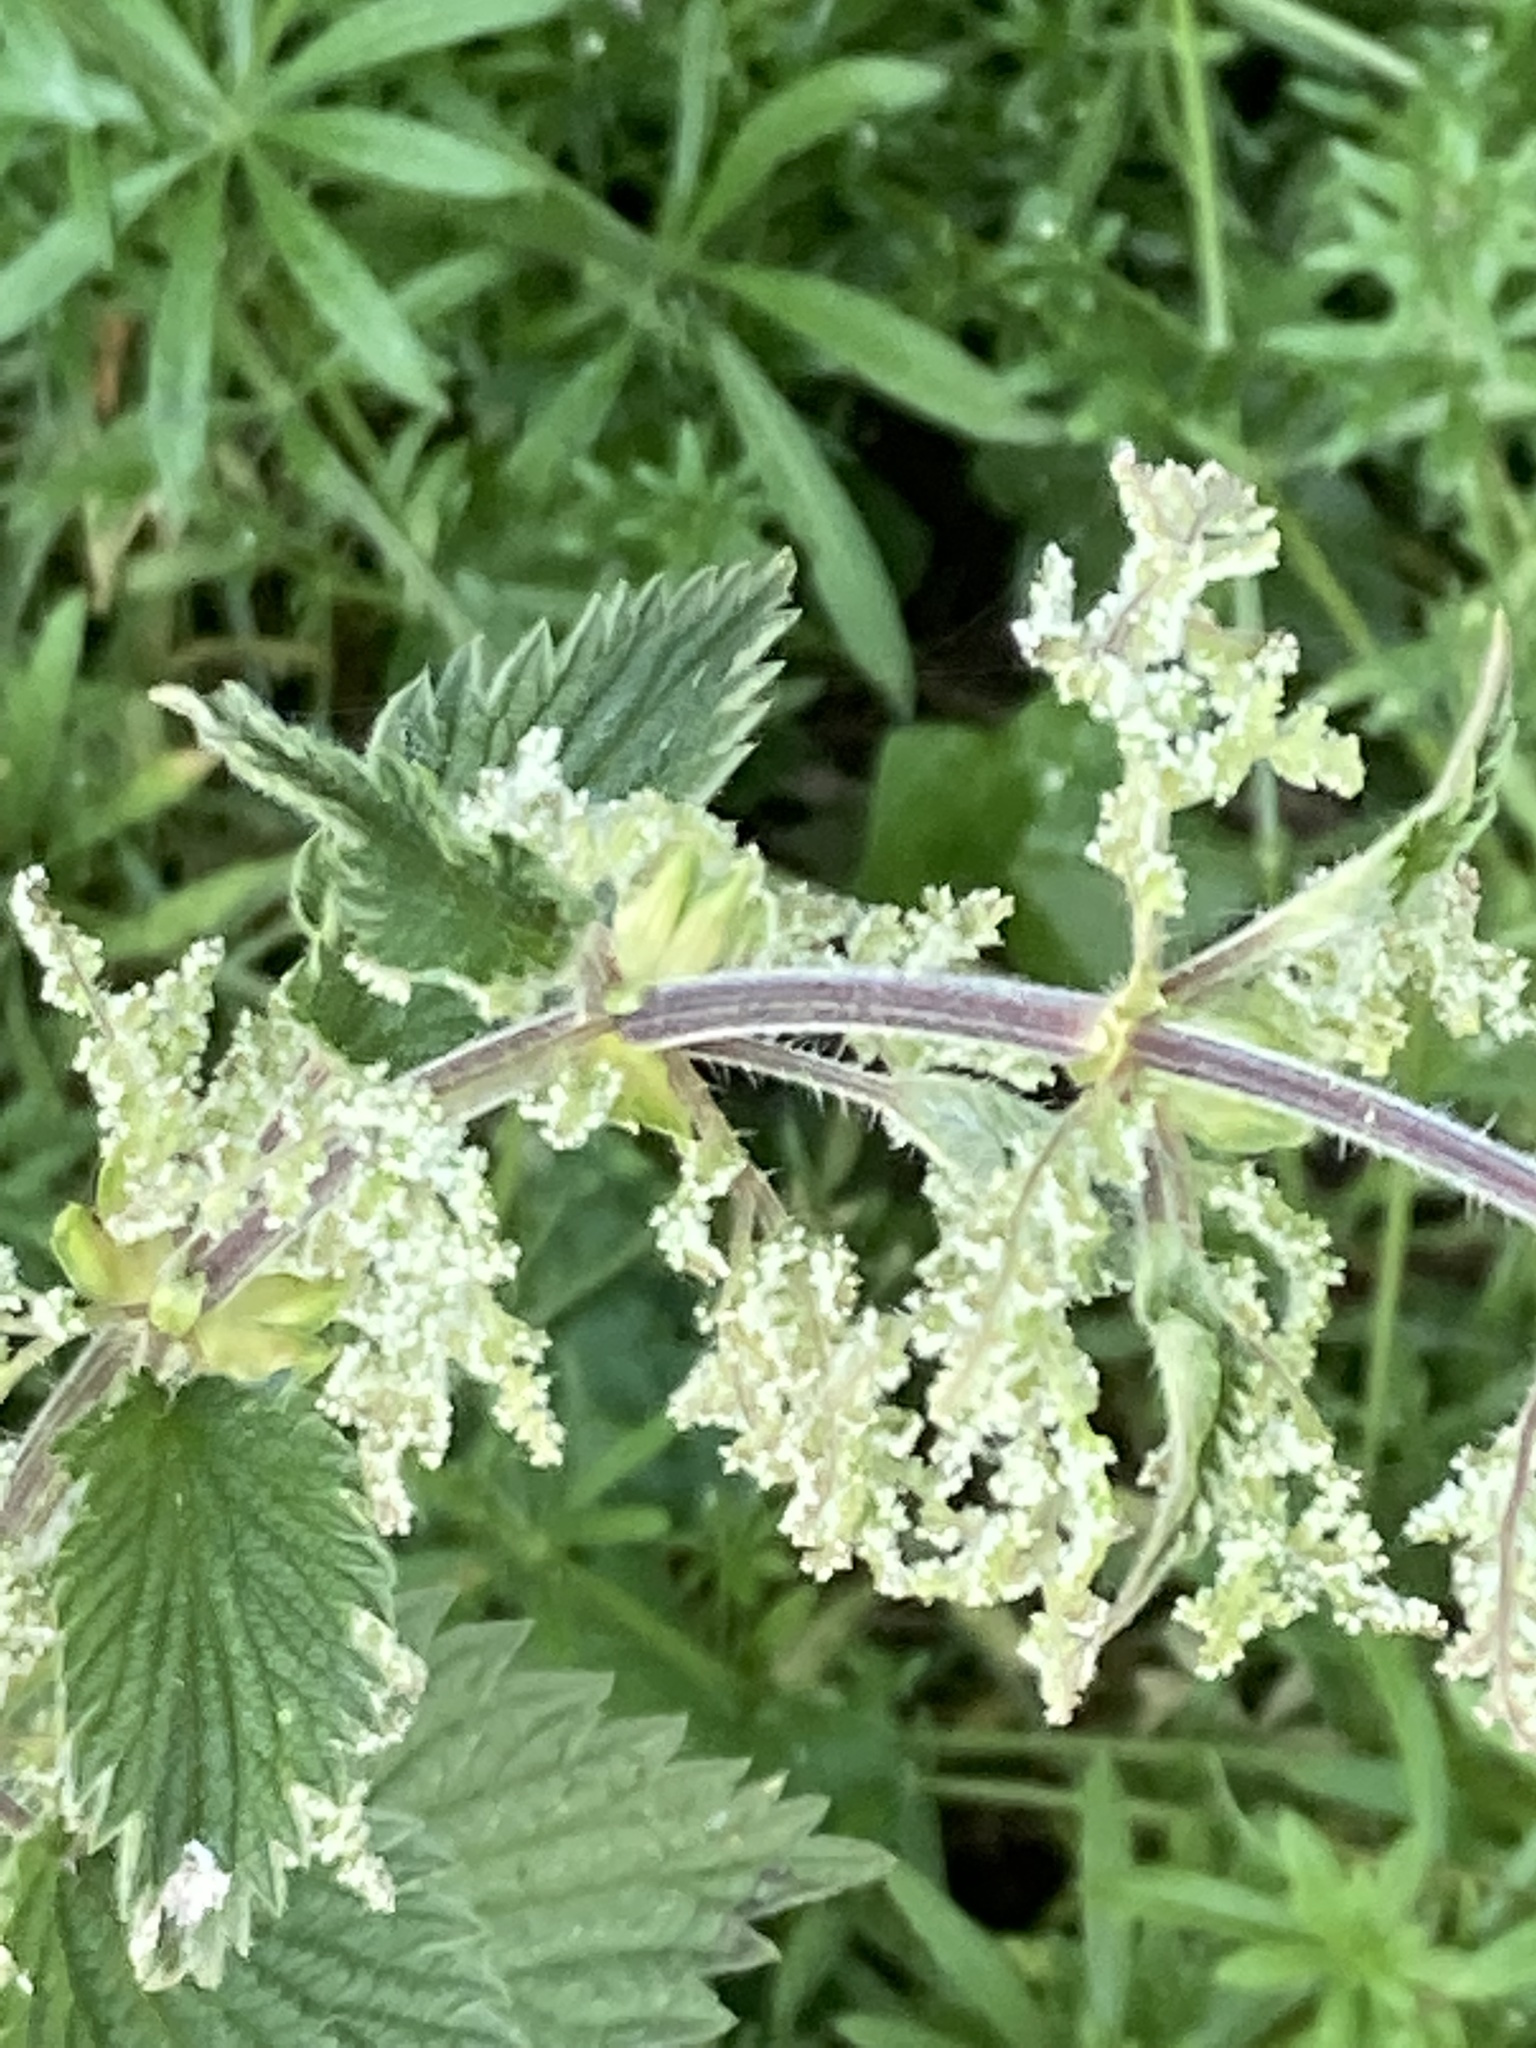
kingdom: Plantae
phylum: Tracheophyta
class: Magnoliopsida
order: Rosales
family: Urticaceae
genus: Urtica
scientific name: Urtica dioica
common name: Common nettle
